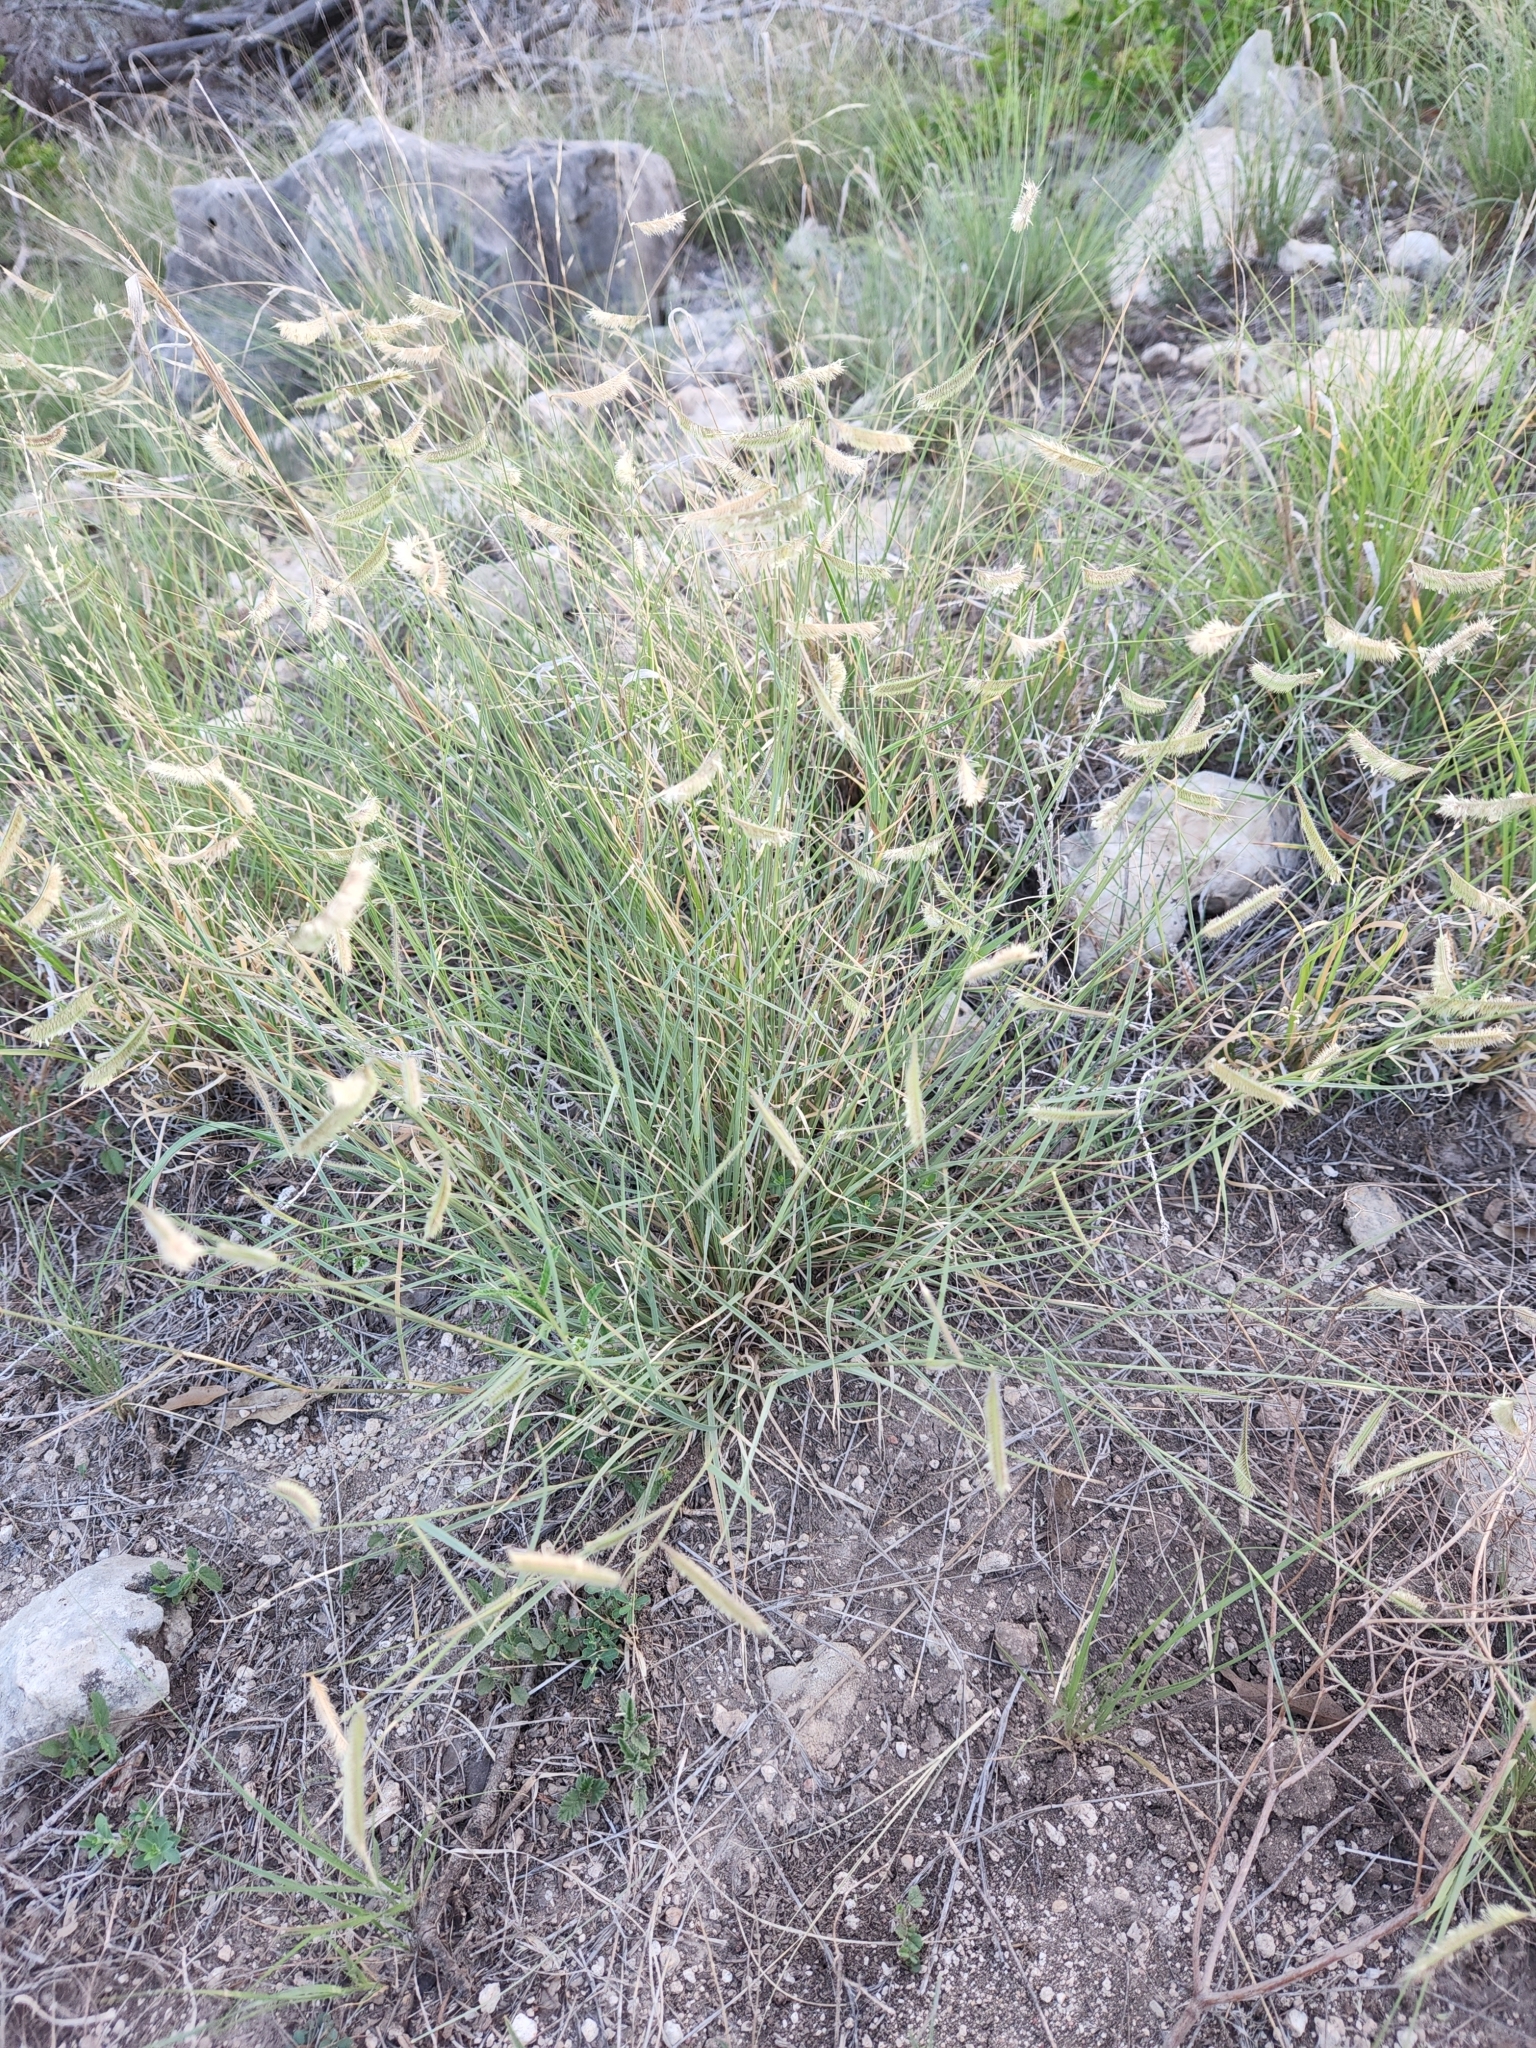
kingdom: Plantae
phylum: Tracheophyta
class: Liliopsida
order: Poales
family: Poaceae
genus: Bouteloua
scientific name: Bouteloua hirsuta
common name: Hairy grama
